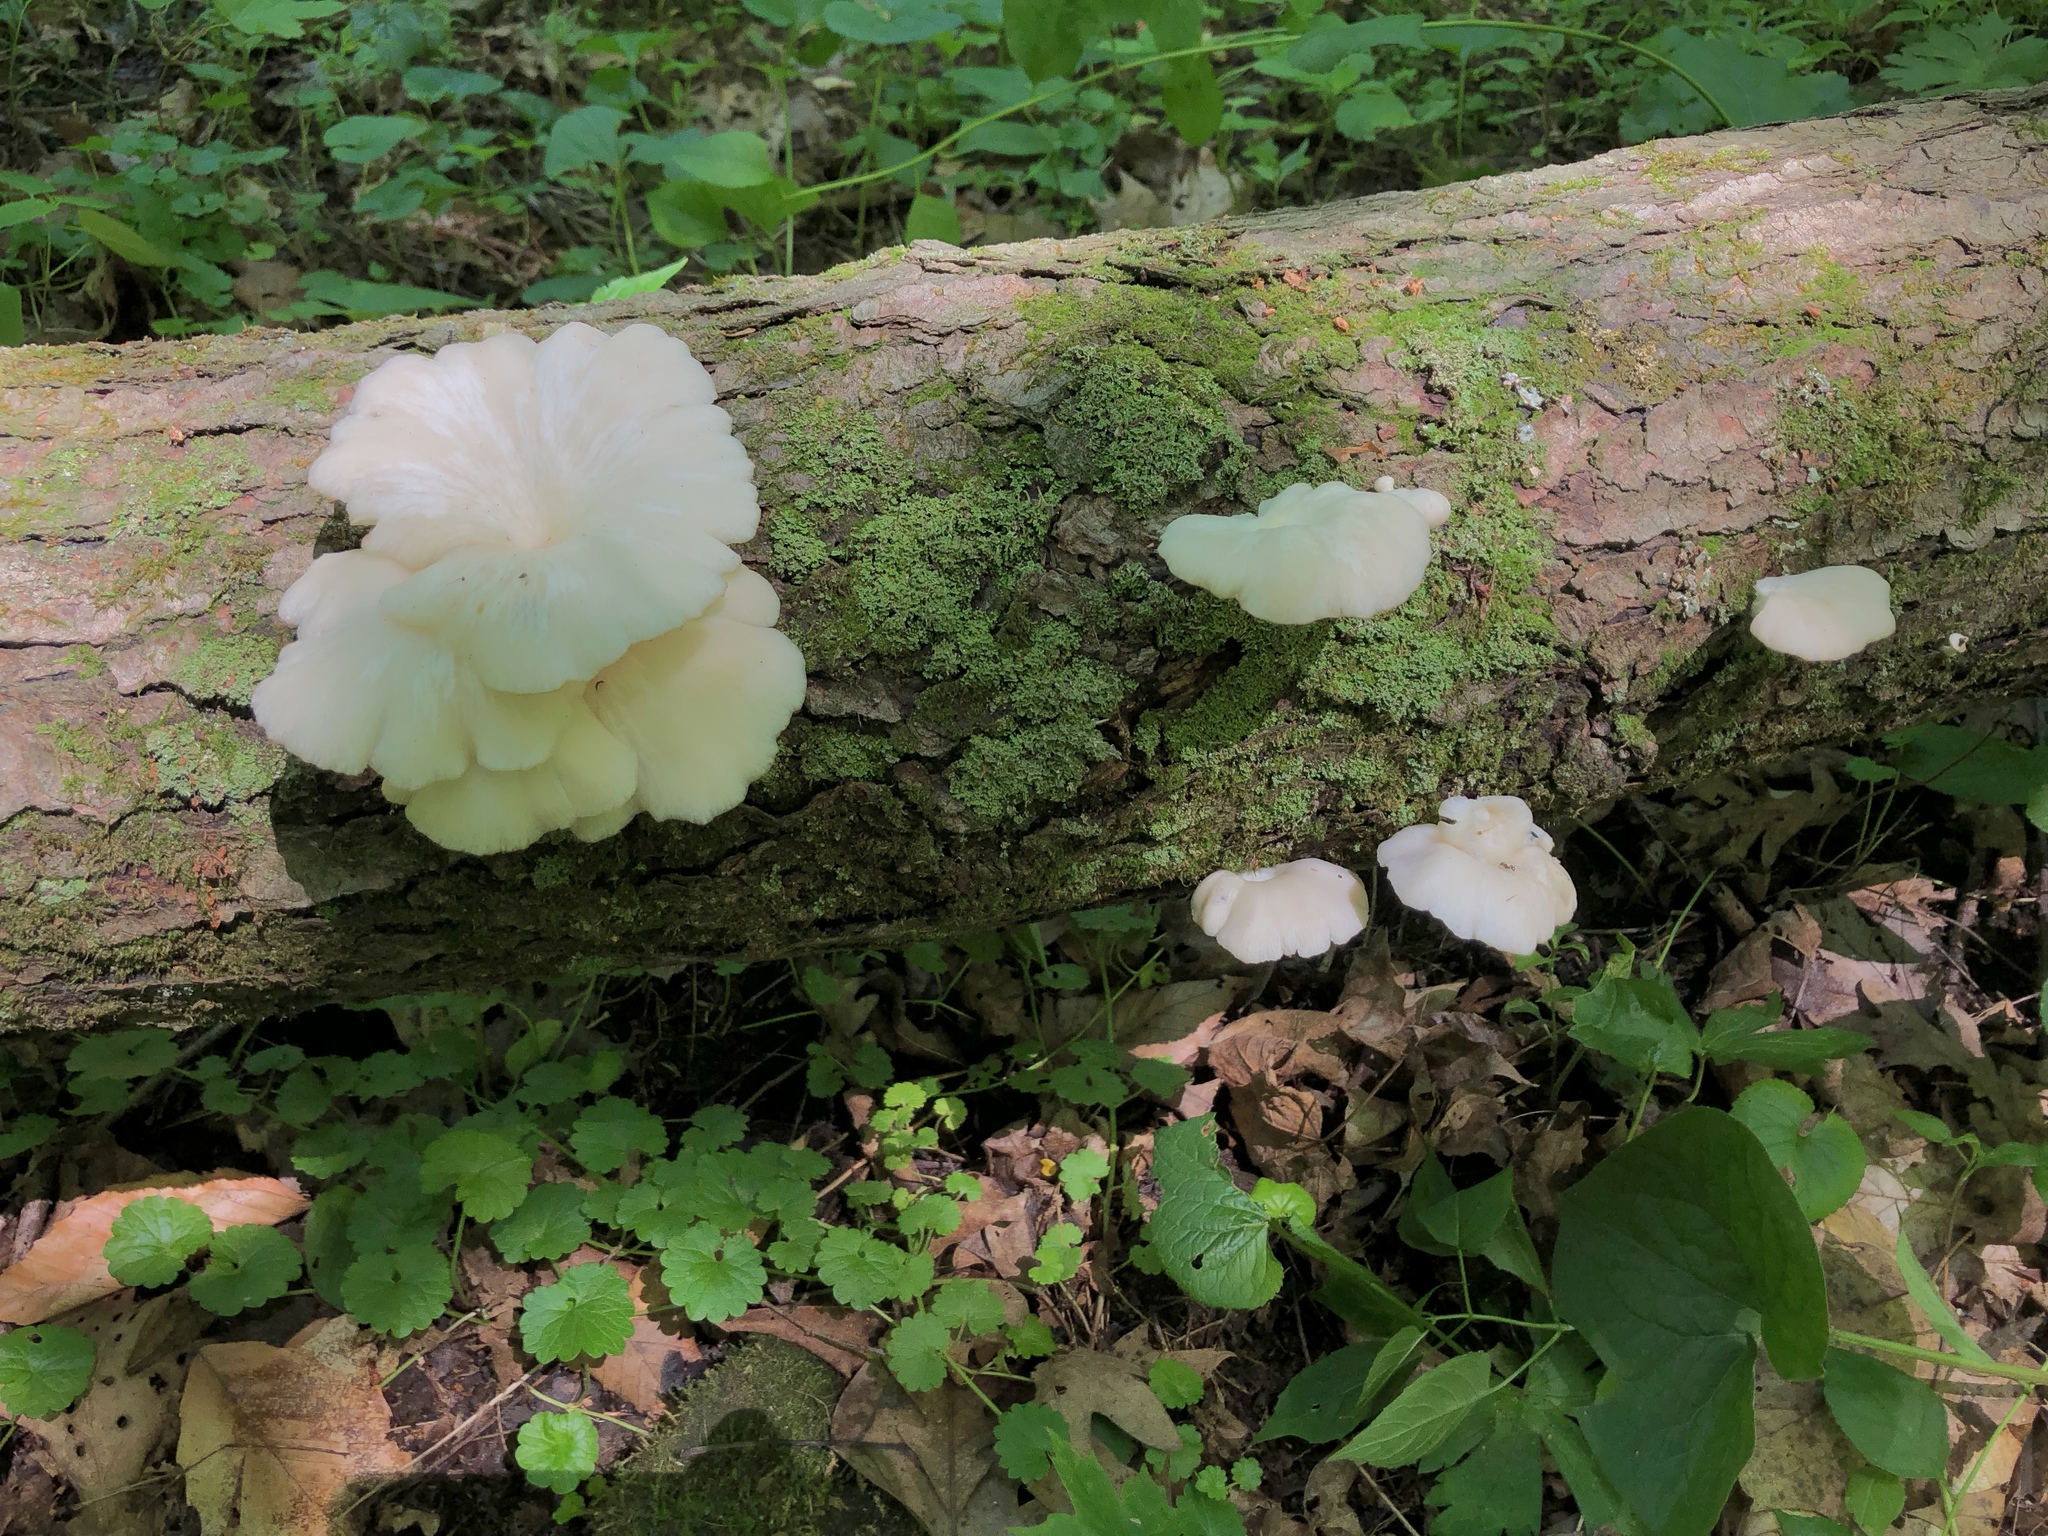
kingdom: Fungi
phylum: Basidiomycota
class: Agaricomycetes
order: Agaricales
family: Pleurotaceae
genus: Pleurotus
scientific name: Pleurotus pulmonarius
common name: Pale oyster
